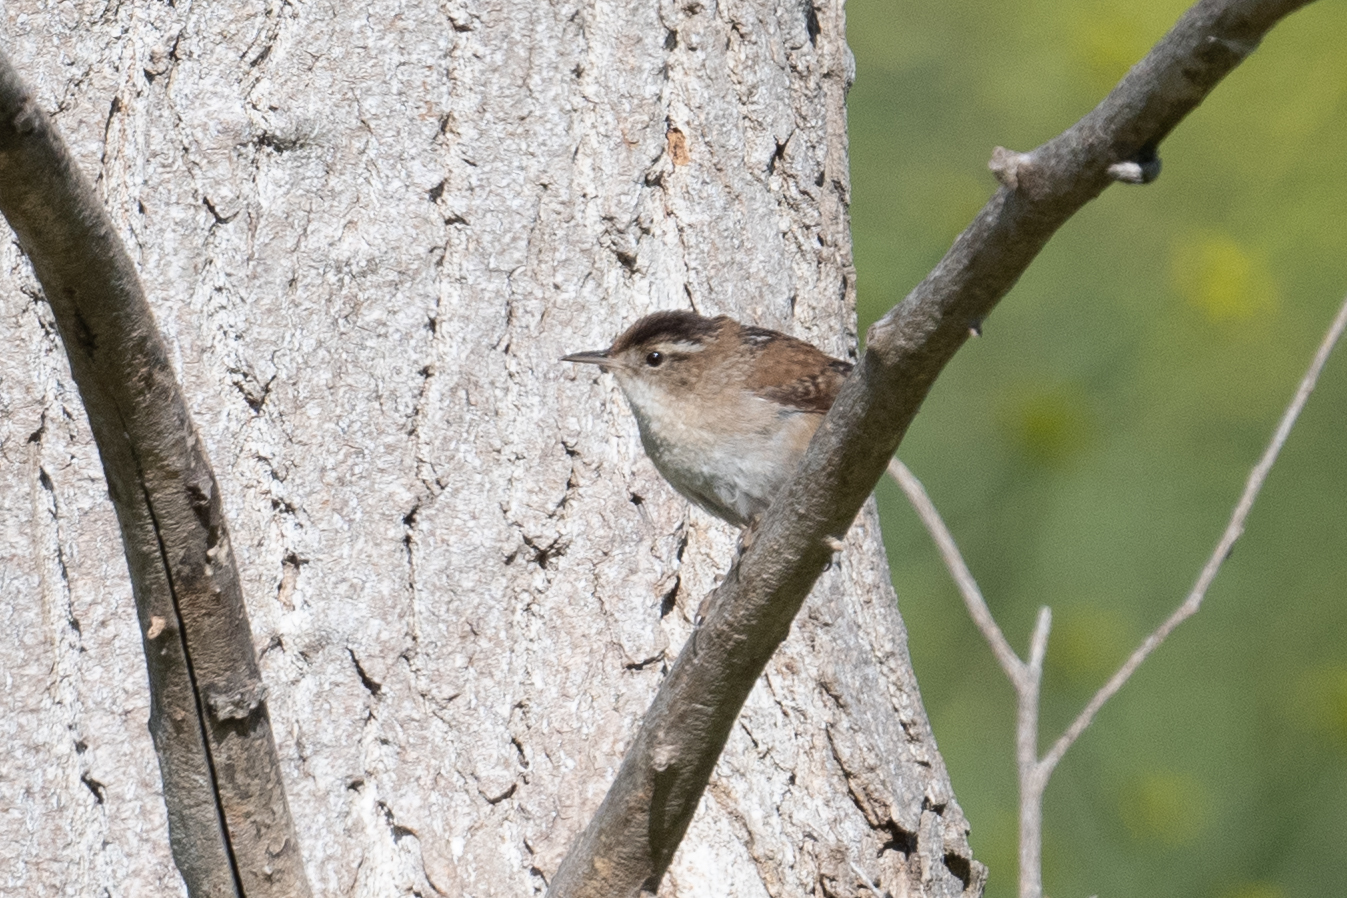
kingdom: Animalia
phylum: Chordata
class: Aves
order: Passeriformes
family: Troglodytidae
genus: Cistothorus
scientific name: Cistothorus palustris
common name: Marsh wren
